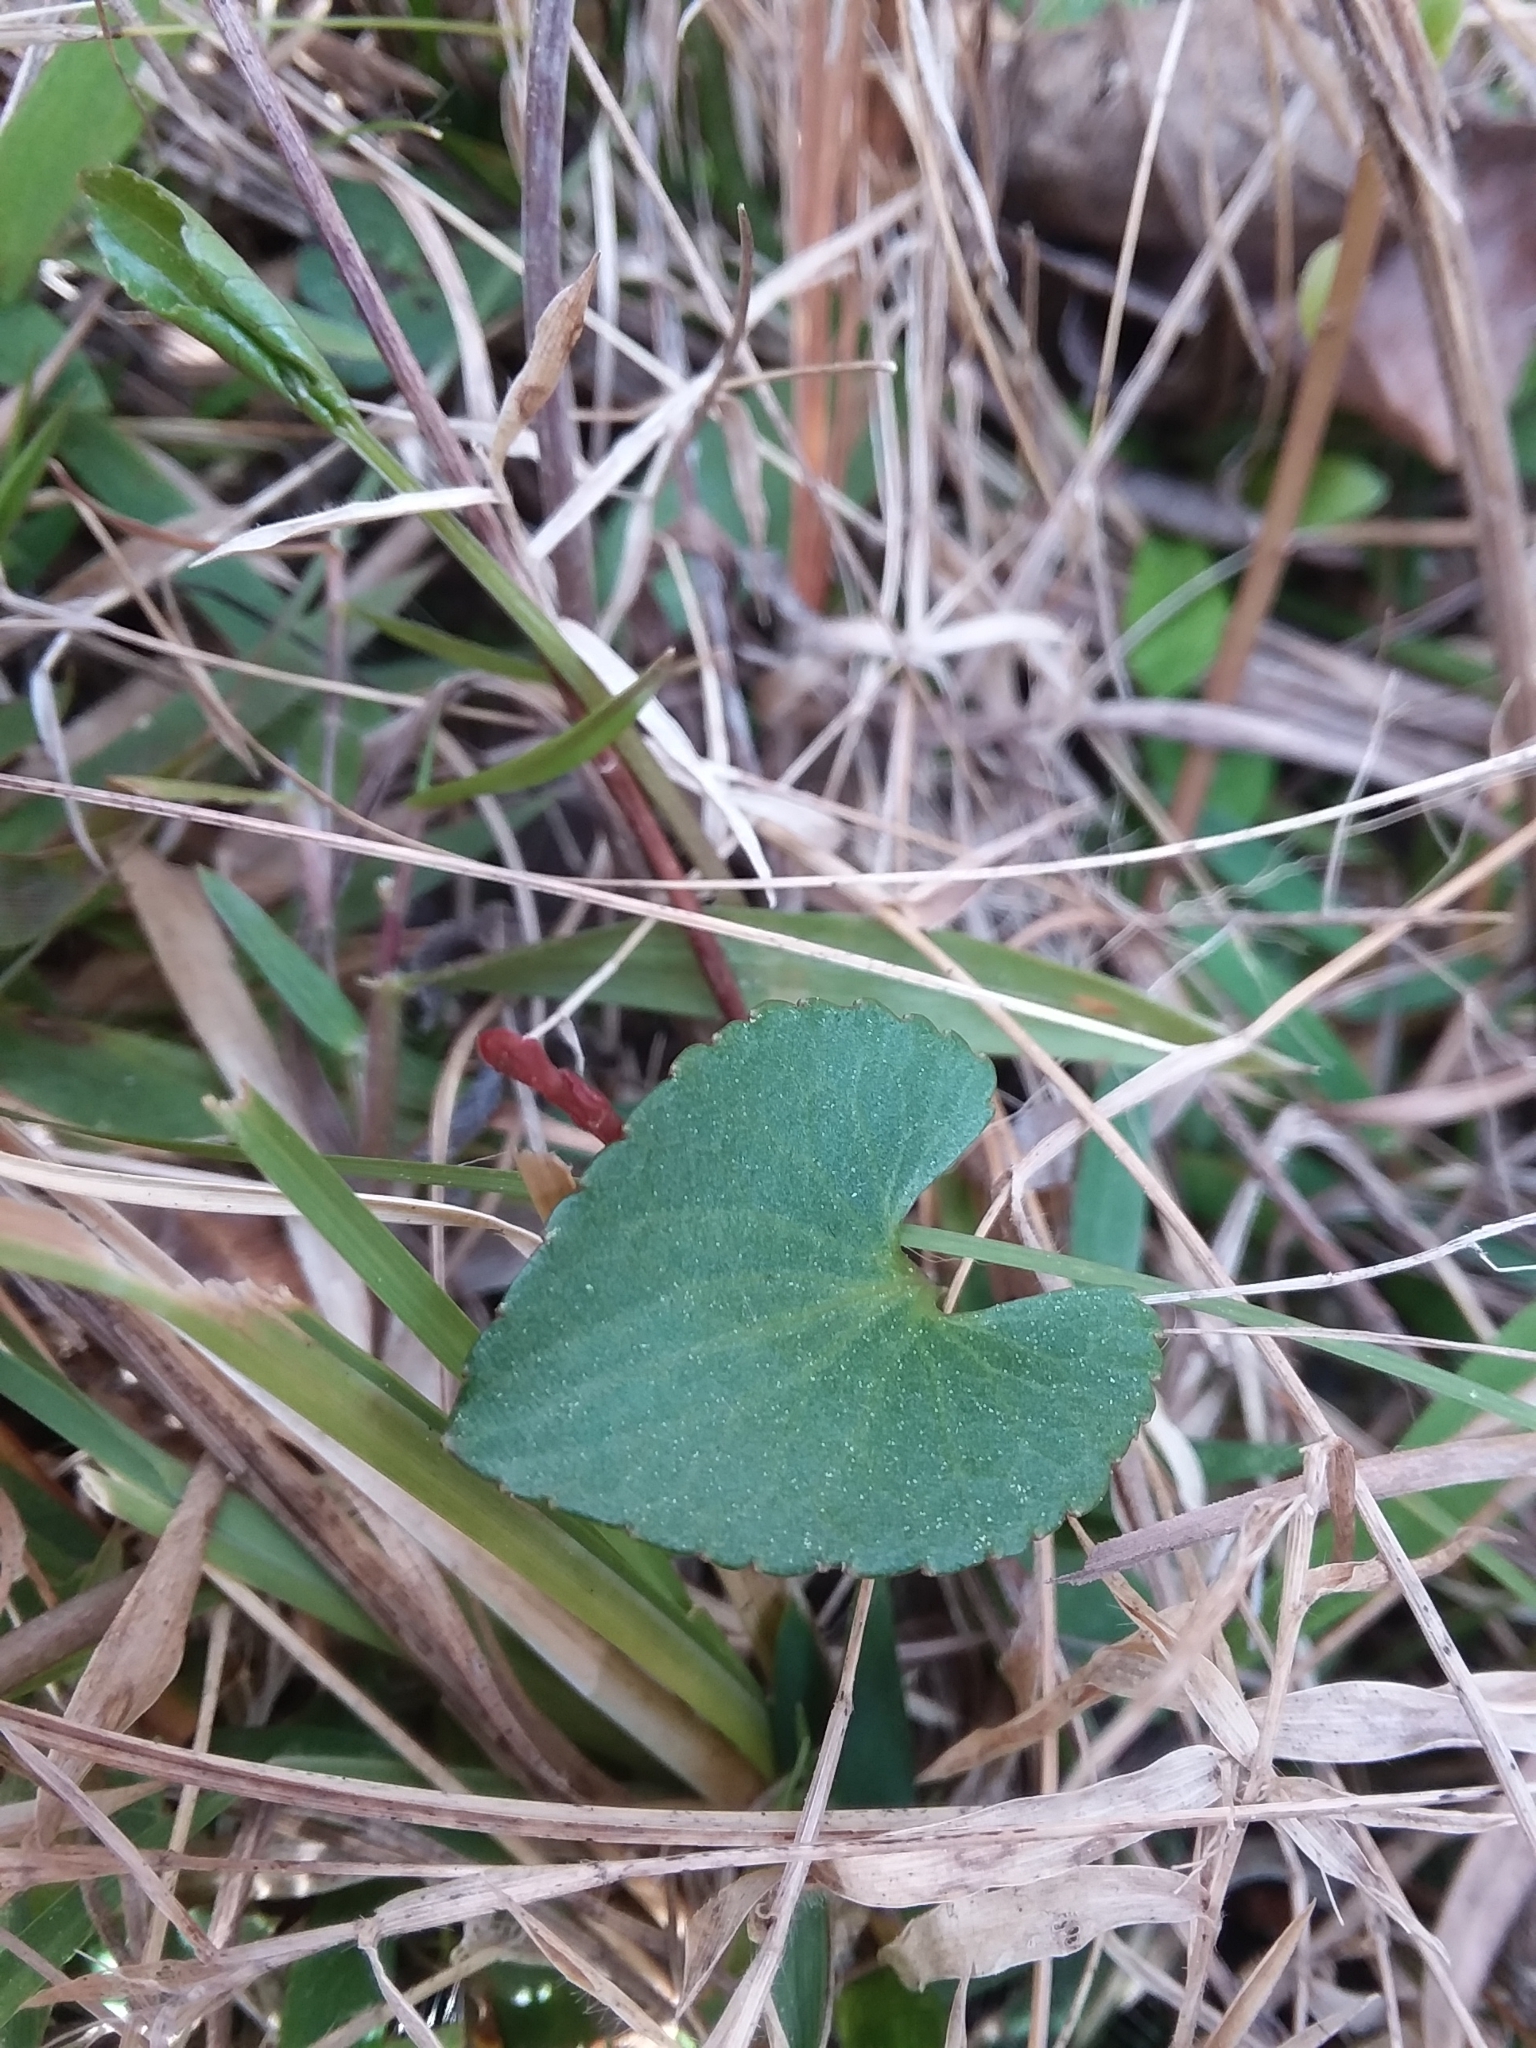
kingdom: Plantae
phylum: Tracheophyta
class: Magnoliopsida
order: Malpighiales
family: Violaceae
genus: Viola
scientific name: Viola septemloba
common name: Southern coast violet
